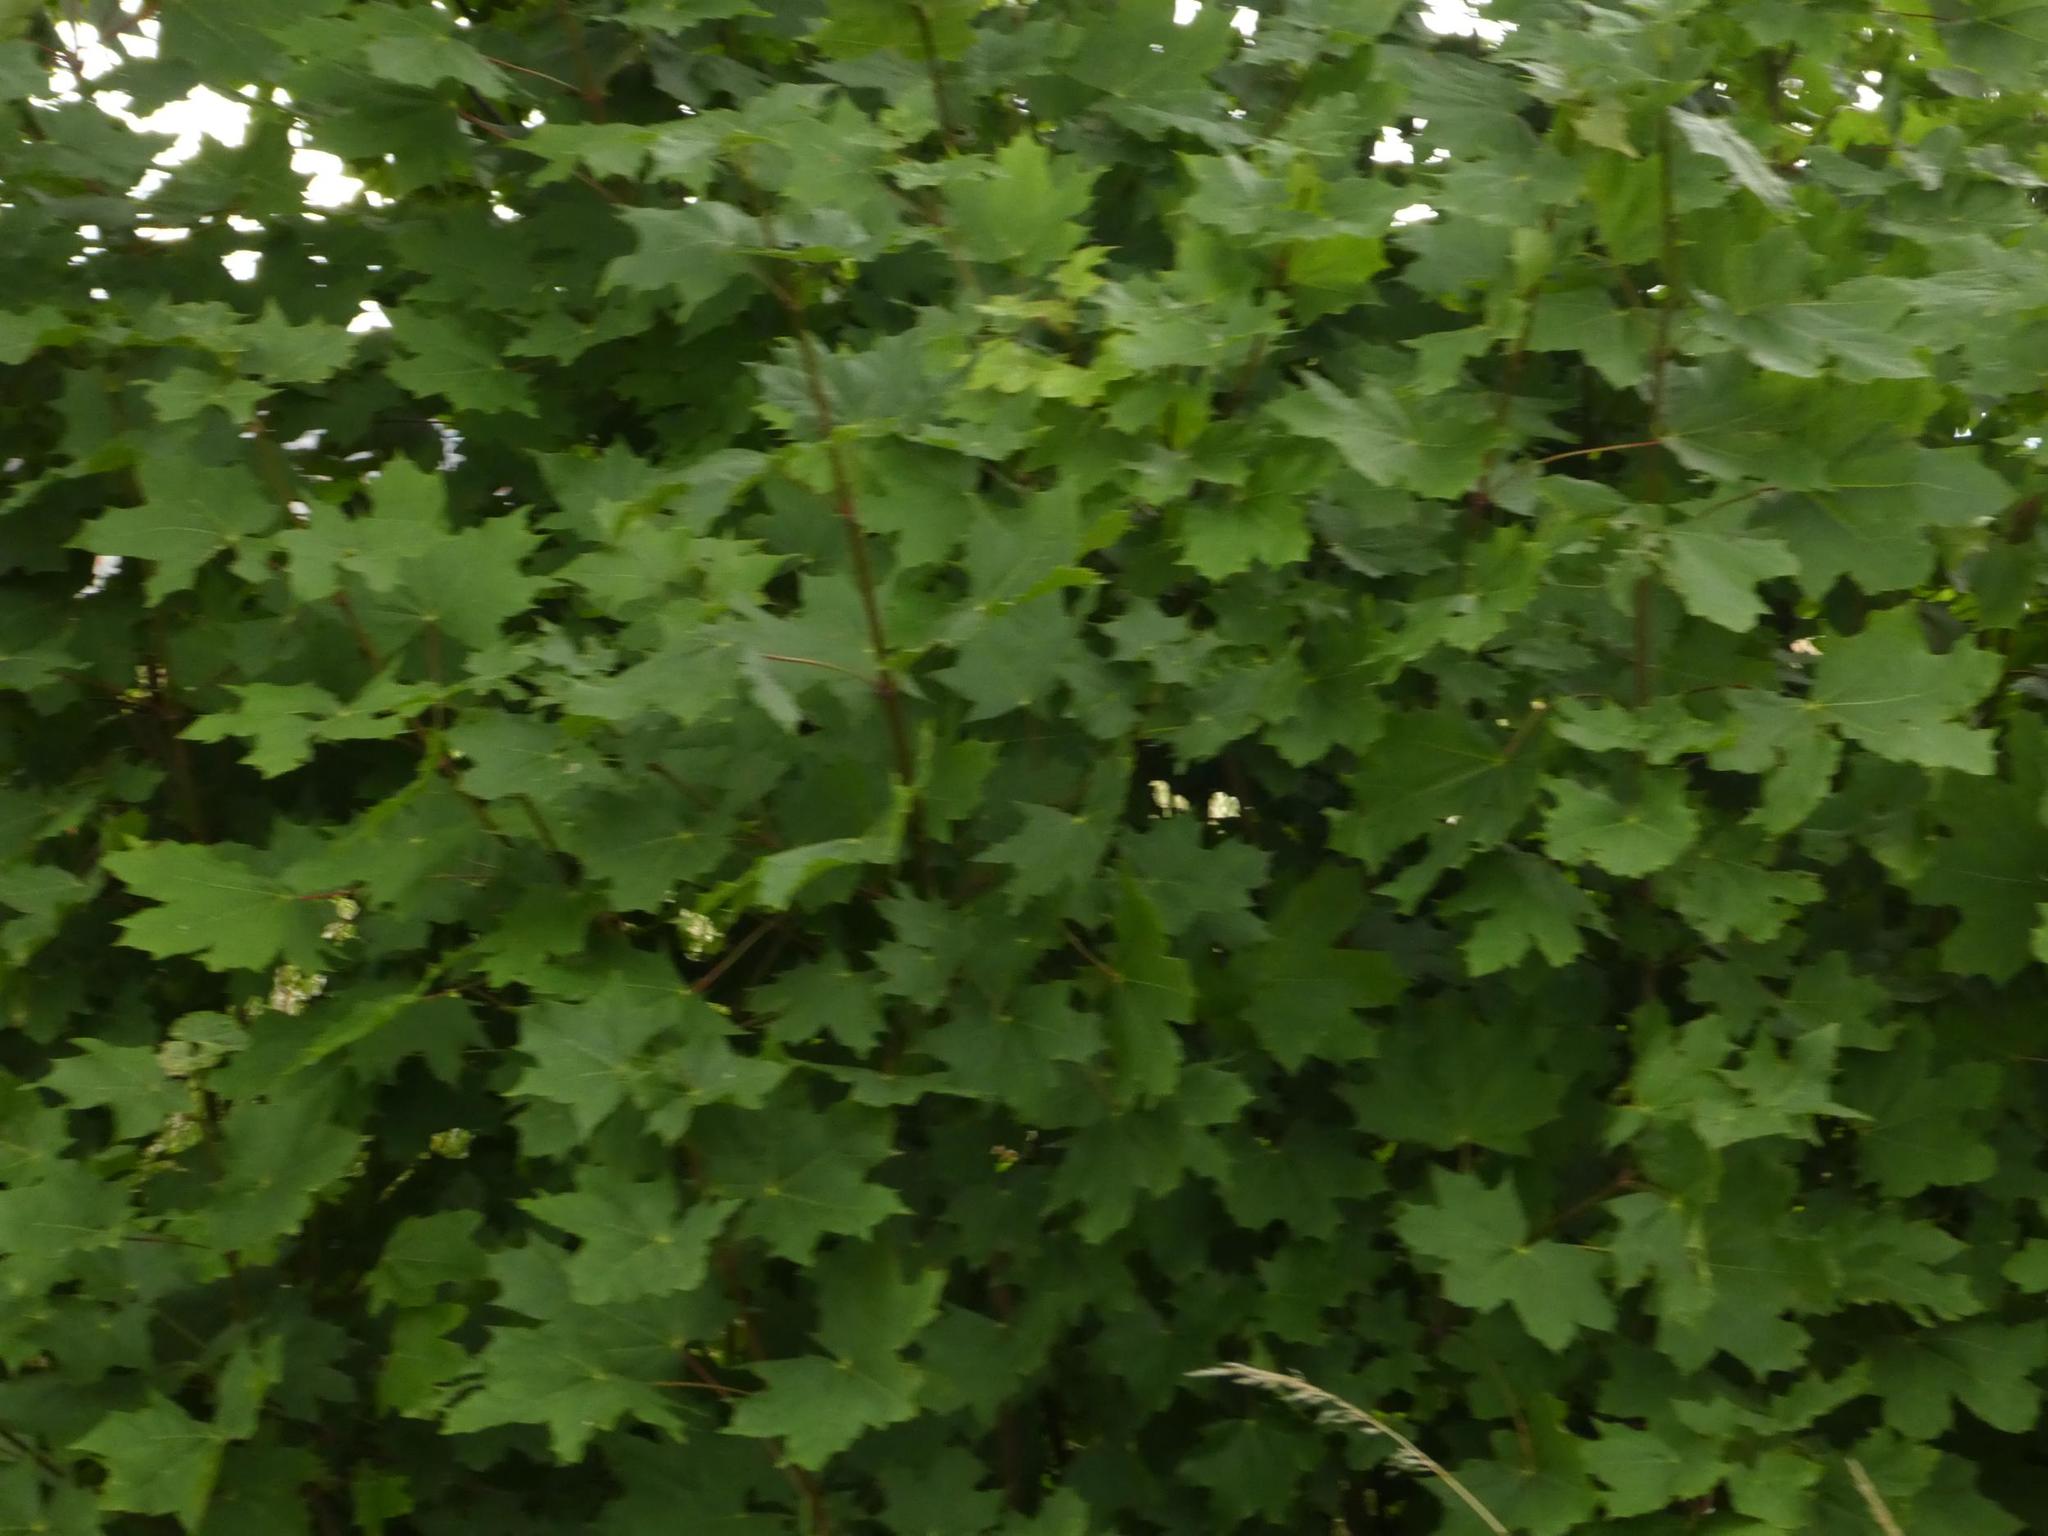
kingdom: Plantae
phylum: Tracheophyta
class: Magnoliopsida
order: Sapindales
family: Sapindaceae
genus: Acer
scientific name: Acer platanoides
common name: Norway maple
